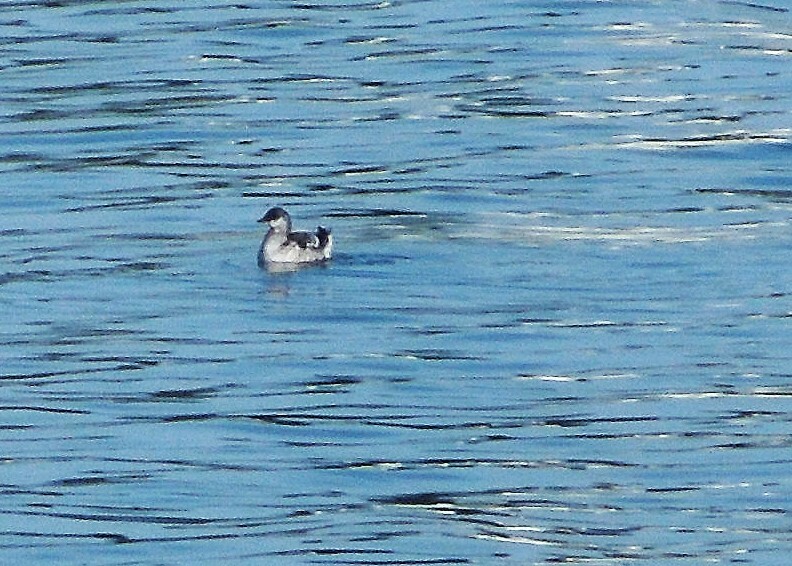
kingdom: Animalia
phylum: Chordata
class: Aves
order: Charadriiformes
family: Alcidae
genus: Cepphus
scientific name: Cepphus grylle
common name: Black guillemot
